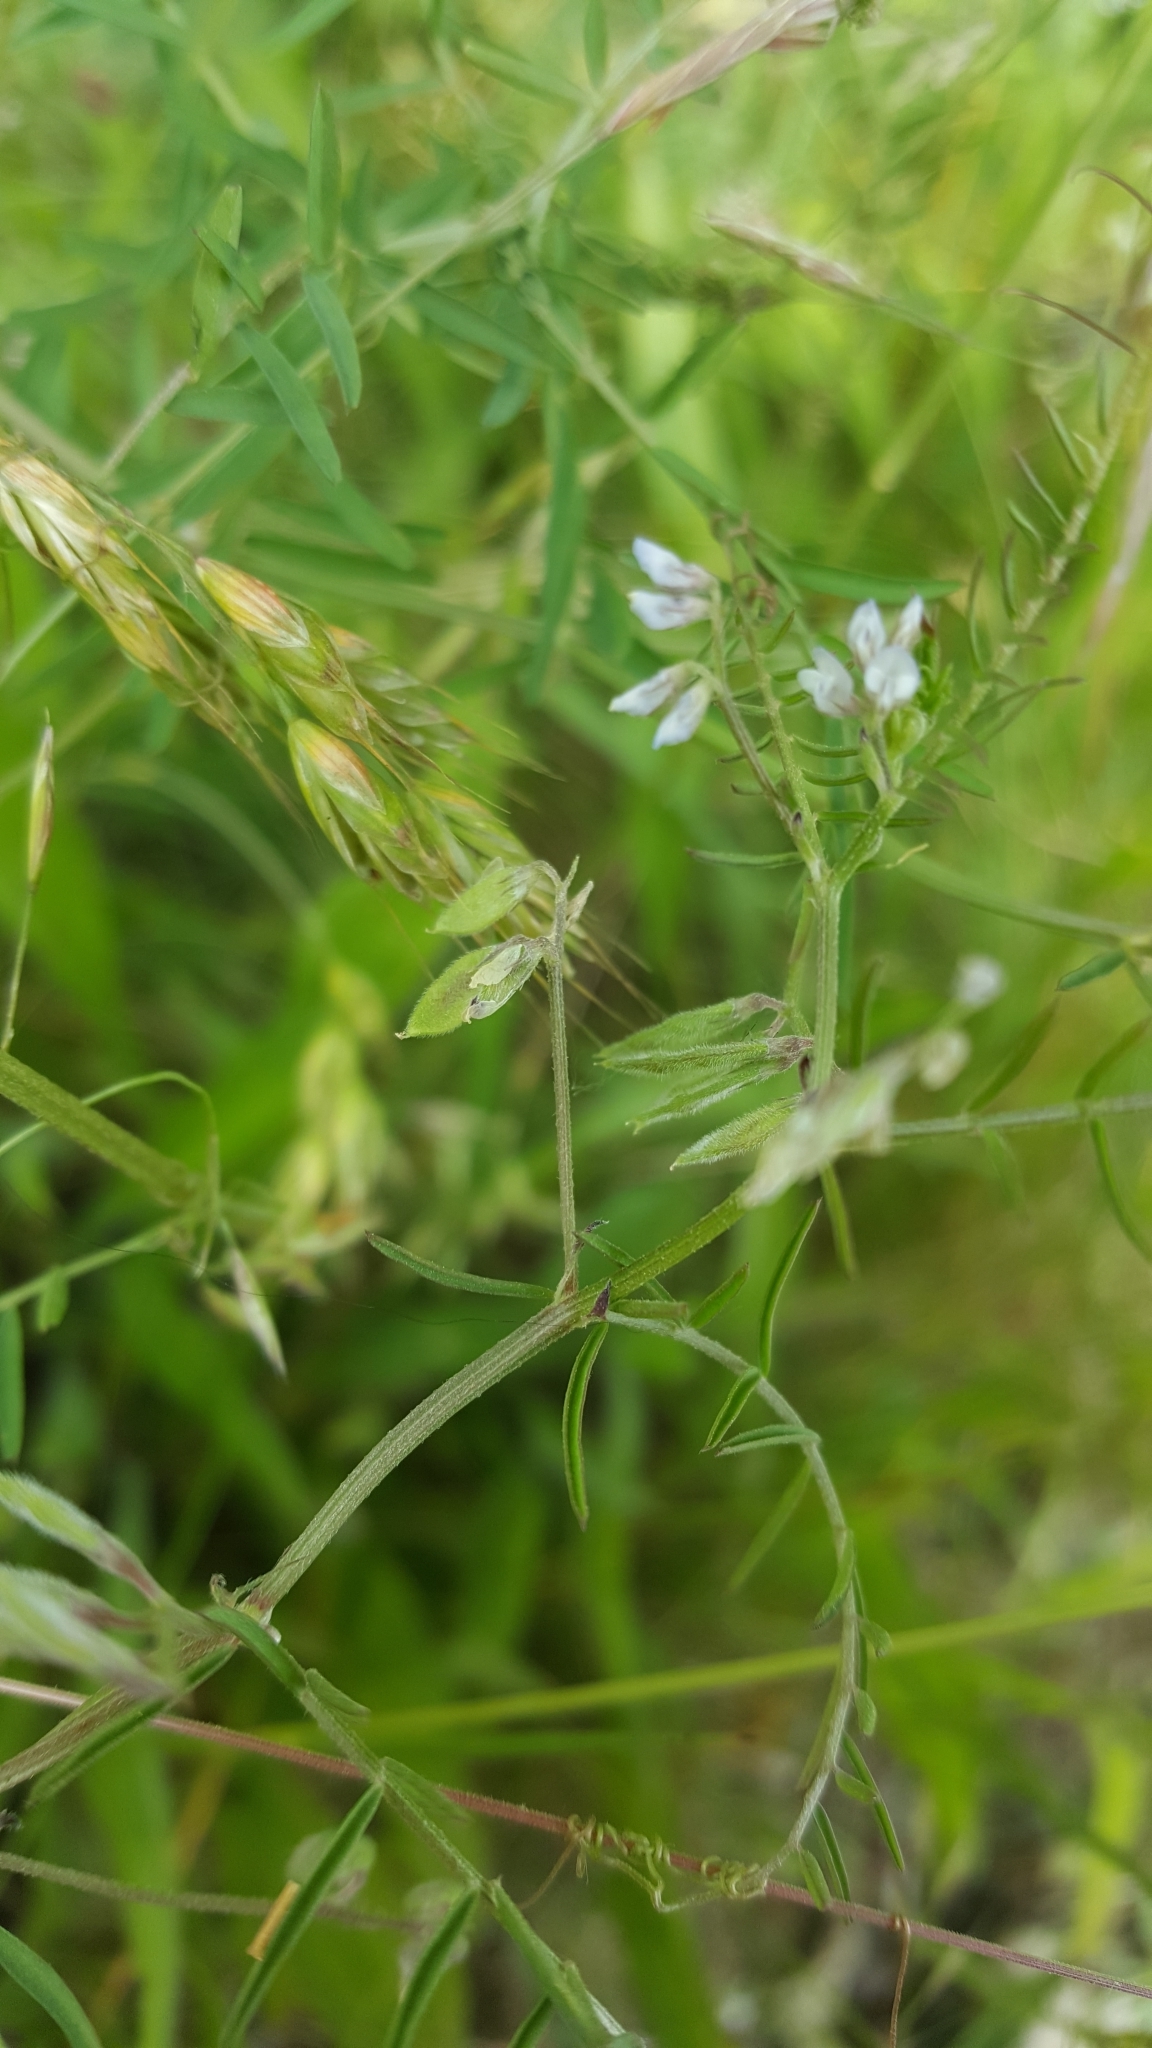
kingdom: Plantae
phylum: Tracheophyta
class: Magnoliopsida
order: Fabales
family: Fabaceae
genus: Vicia
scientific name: Vicia hirsuta
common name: Tiny vetch
